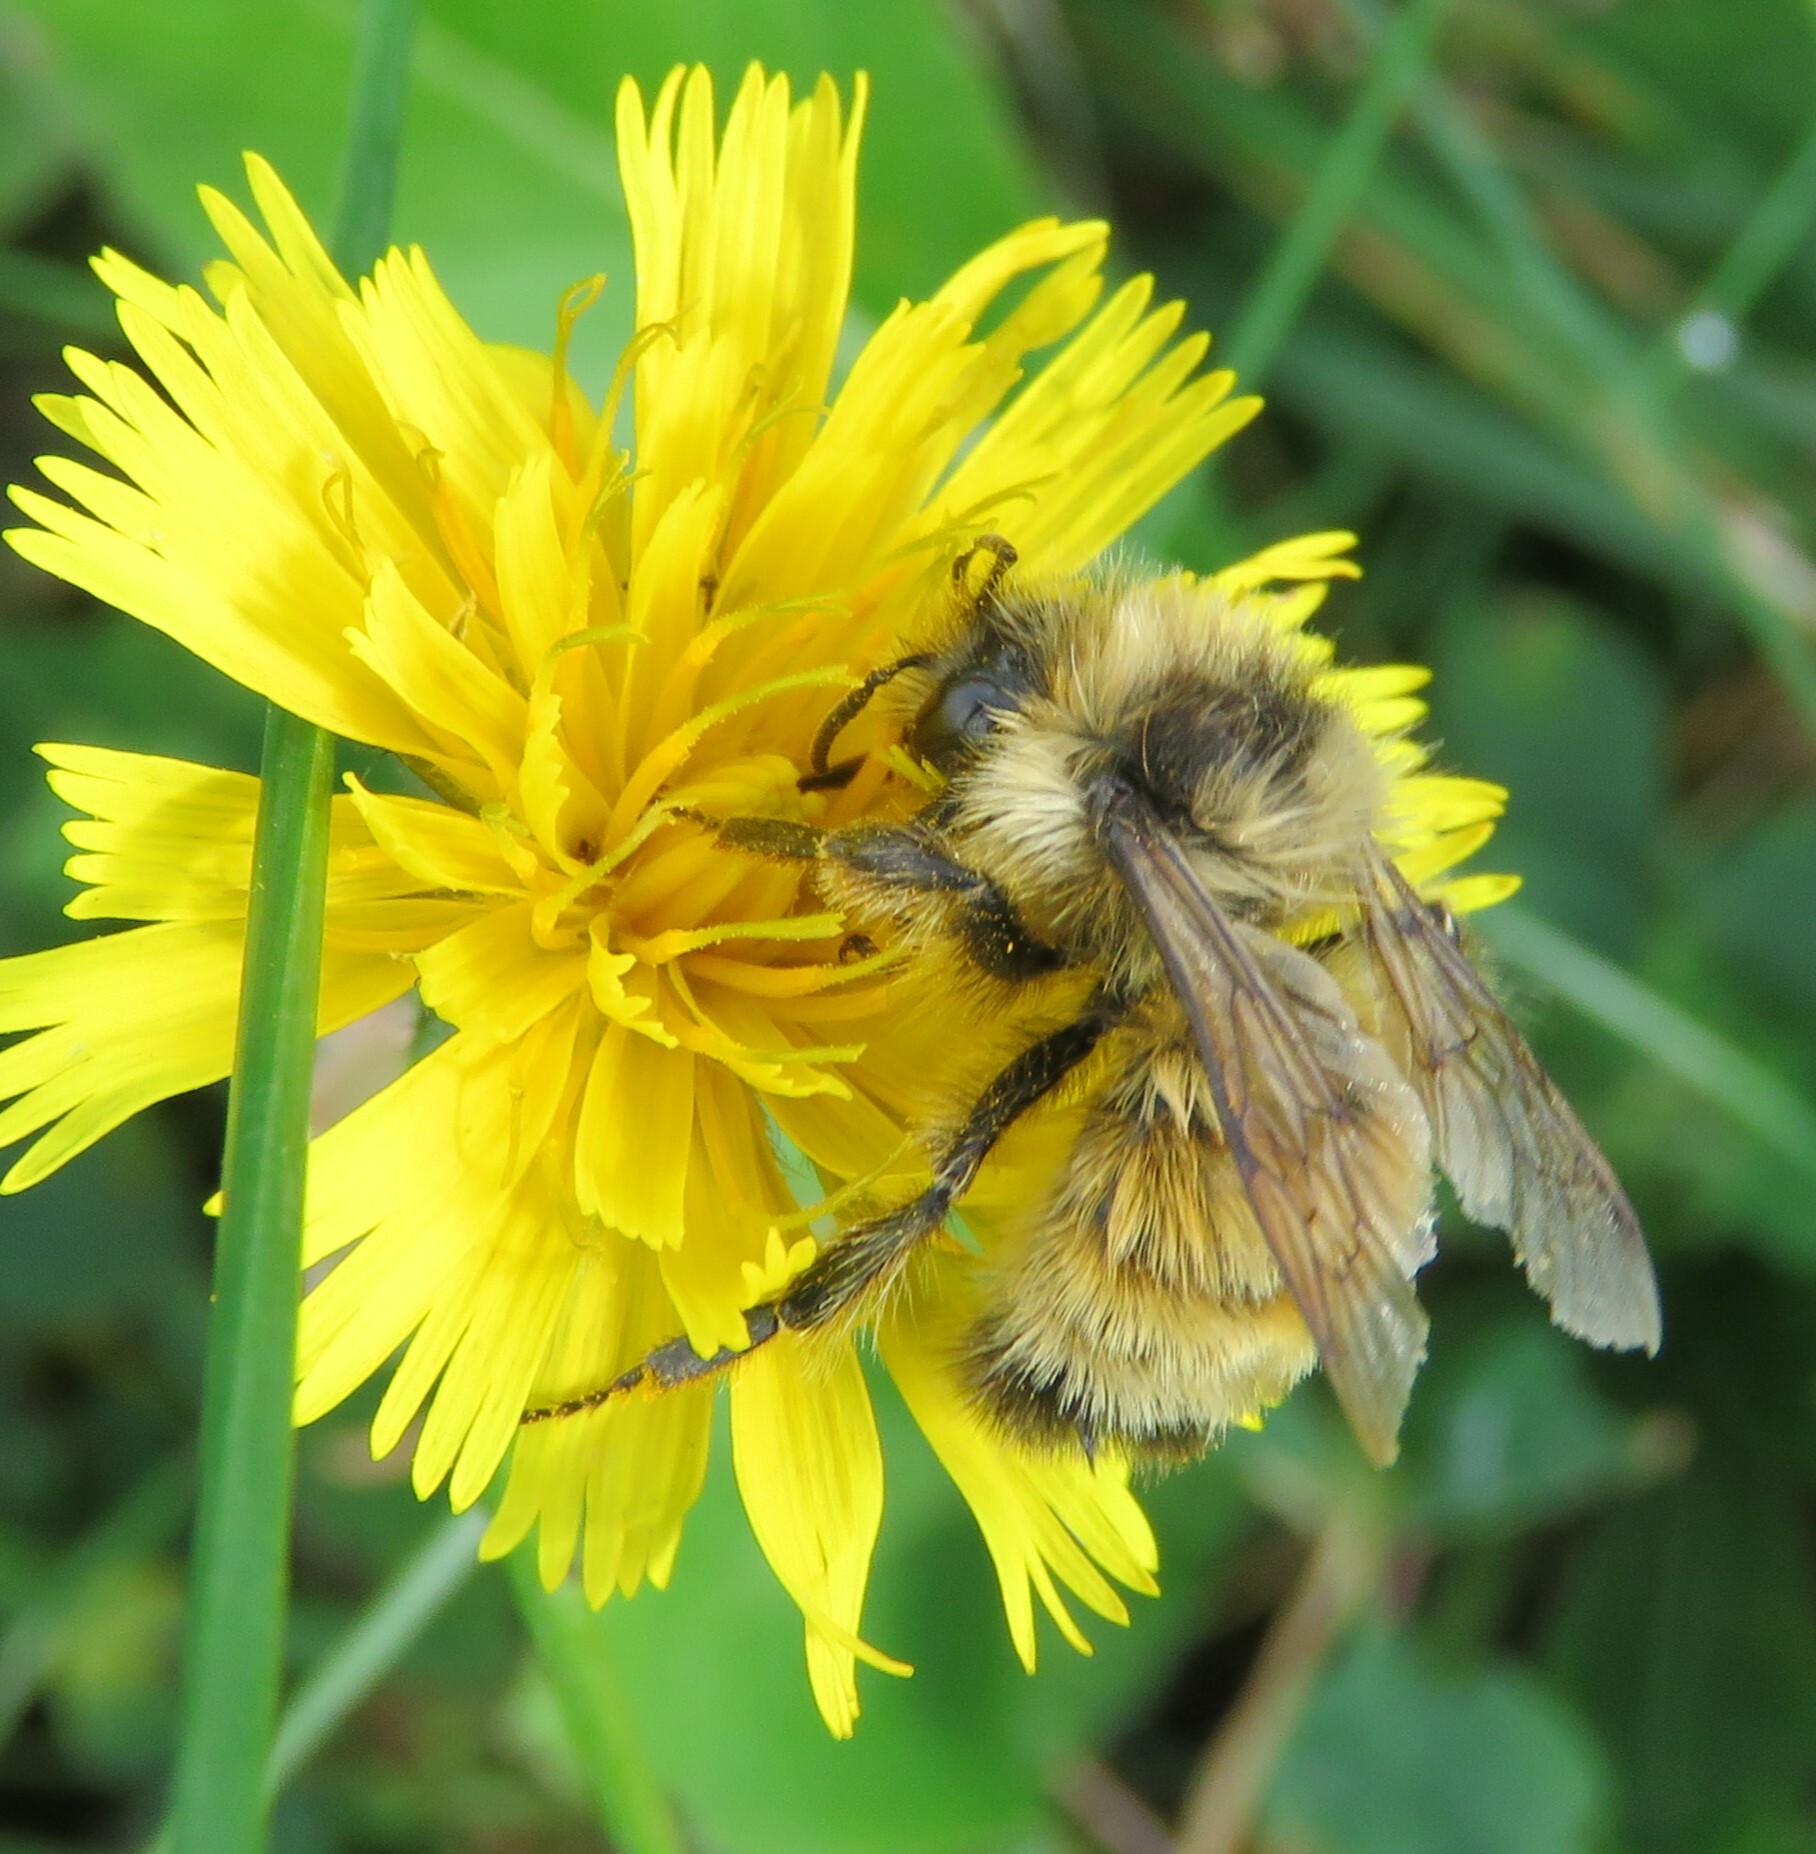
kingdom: Animalia
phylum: Arthropoda
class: Insecta
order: Hymenoptera
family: Apidae
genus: Bombus
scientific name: Bombus ternarius
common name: Tri-colored bumble bee
